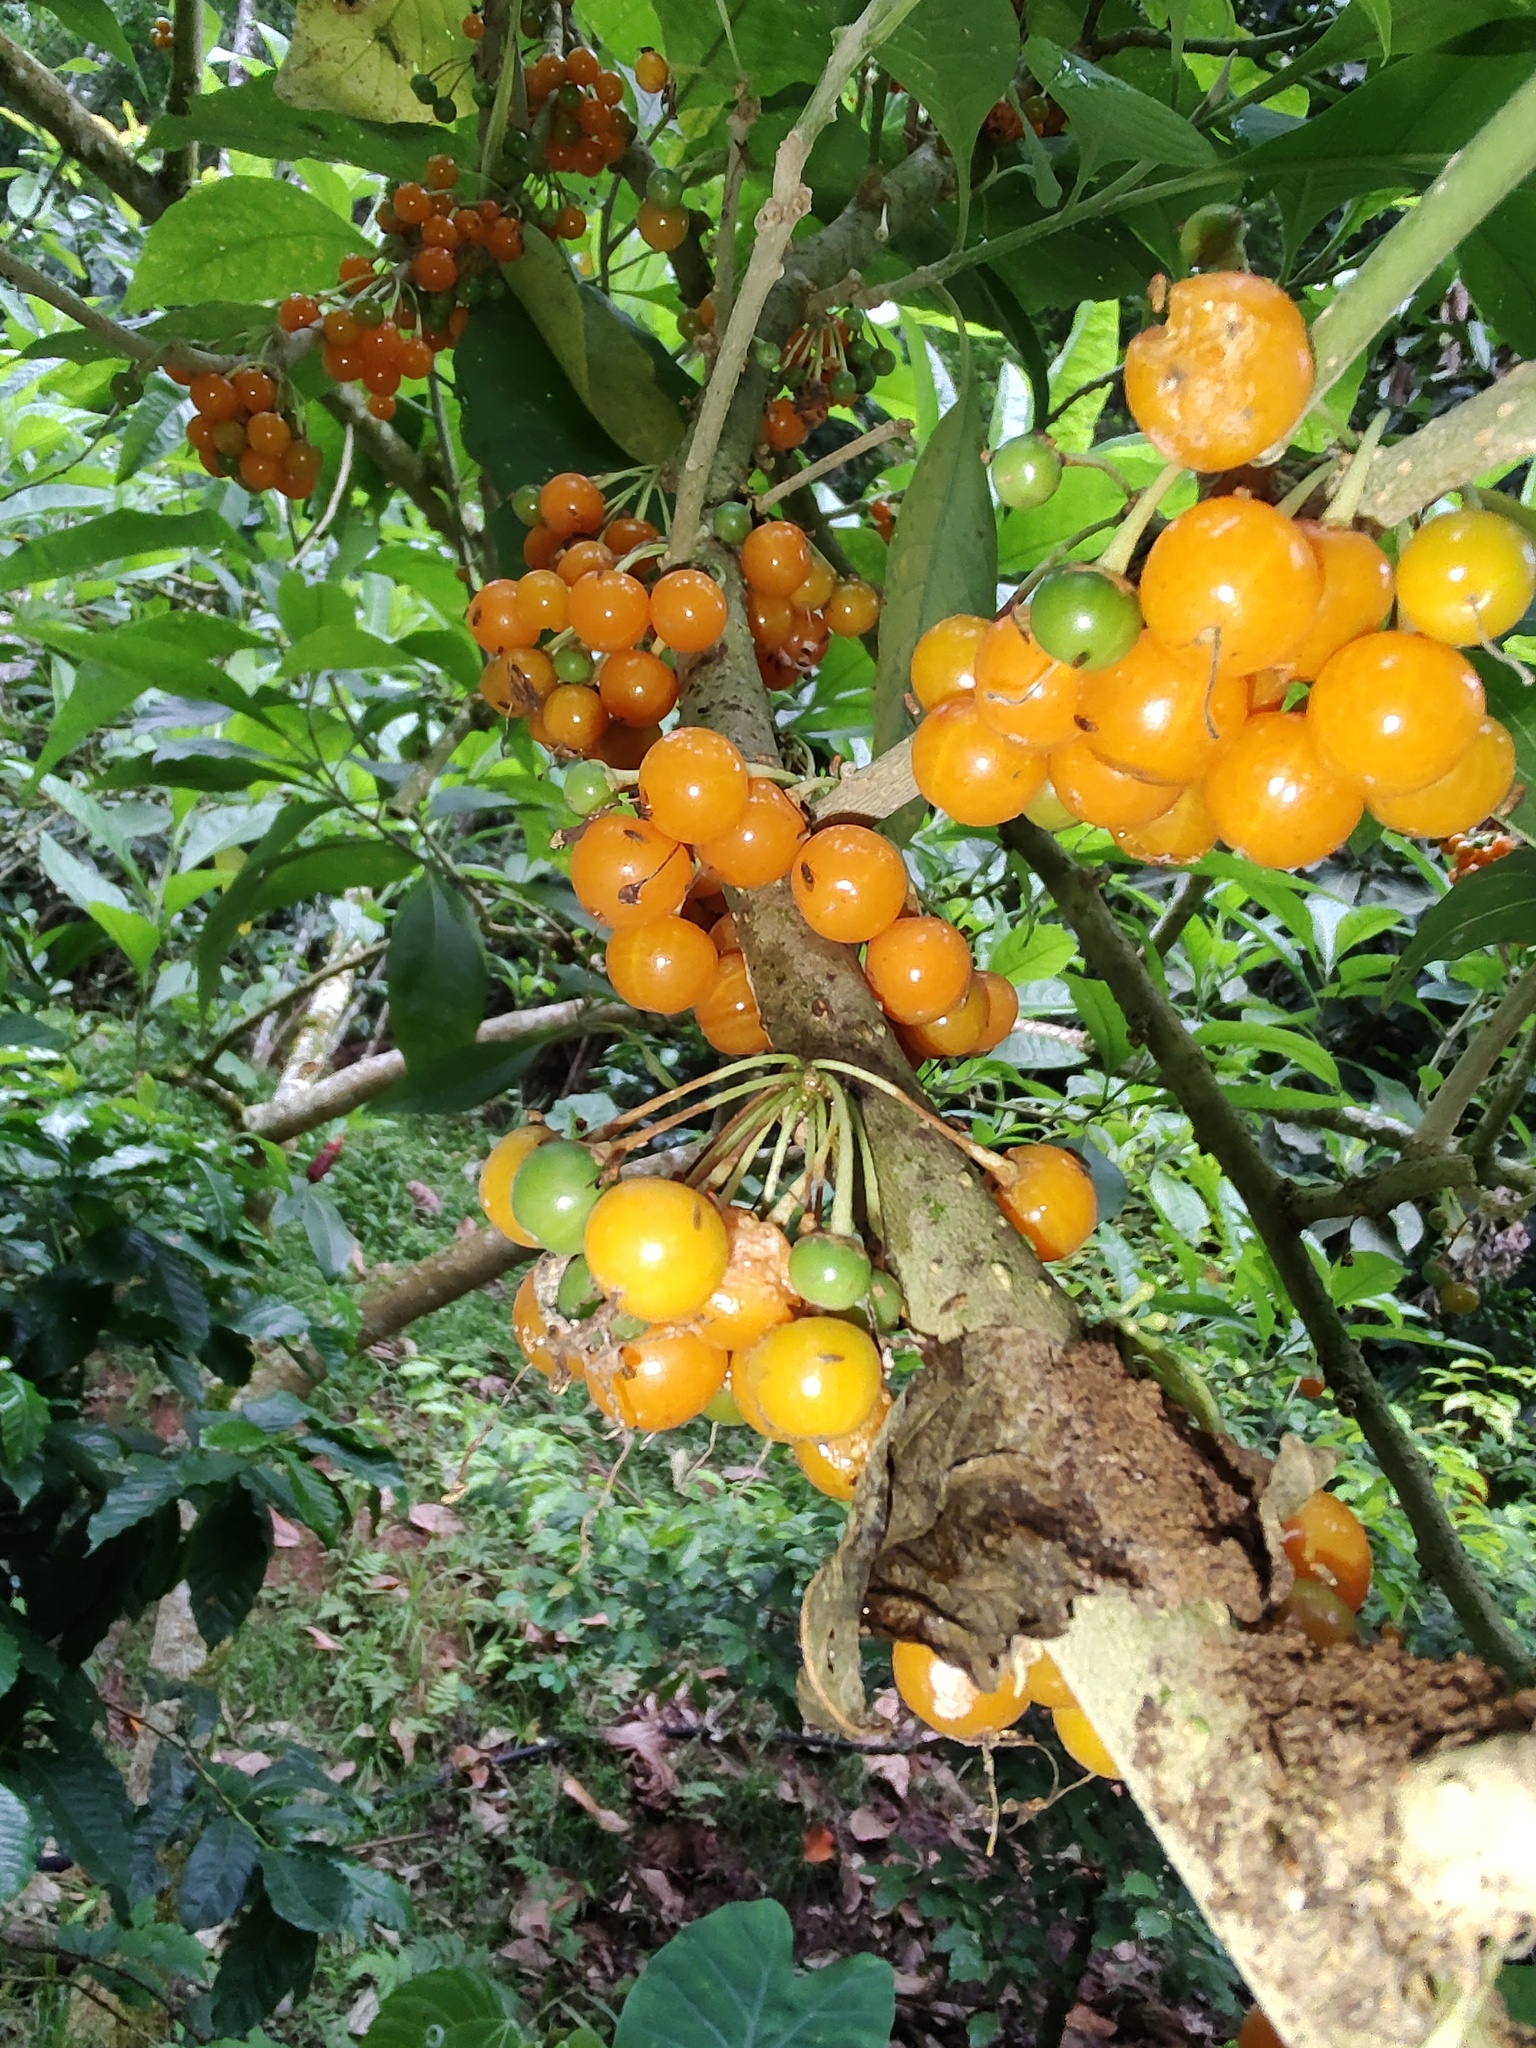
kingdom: Plantae
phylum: Tracheophyta
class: Magnoliopsida
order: Solanales
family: Solanaceae
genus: Iochroma
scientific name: Iochroma arborescens
